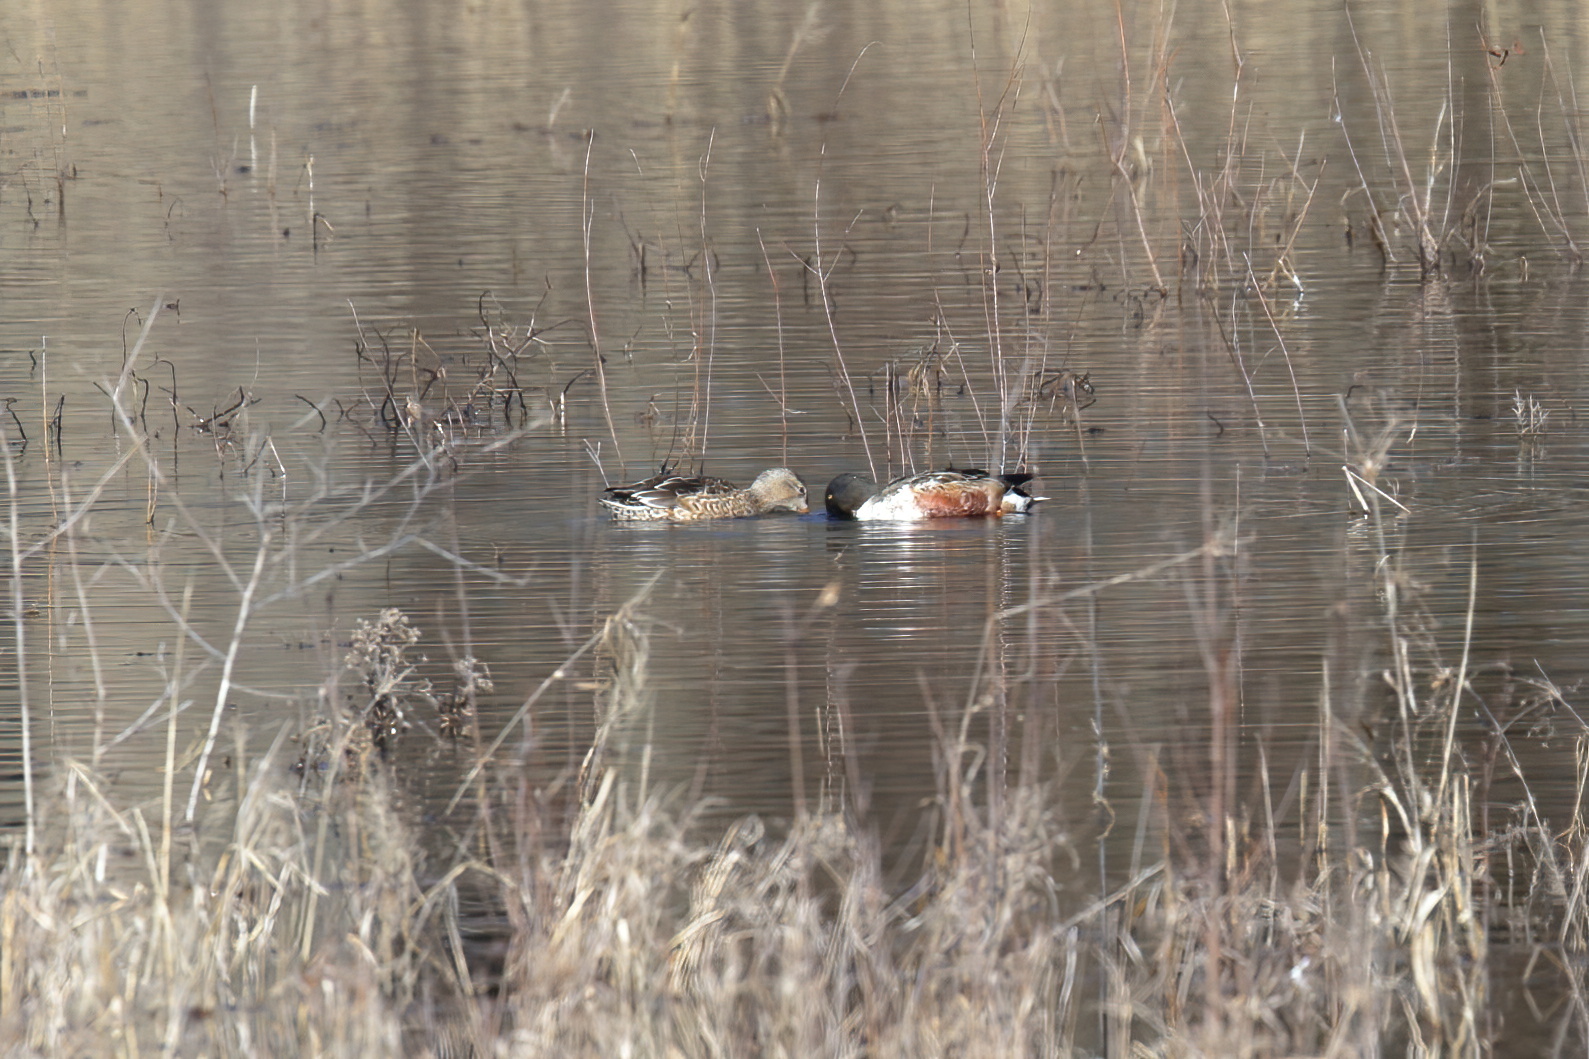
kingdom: Animalia
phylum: Chordata
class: Aves
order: Anseriformes
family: Anatidae
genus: Spatula
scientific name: Spatula clypeata
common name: Northern shoveler
